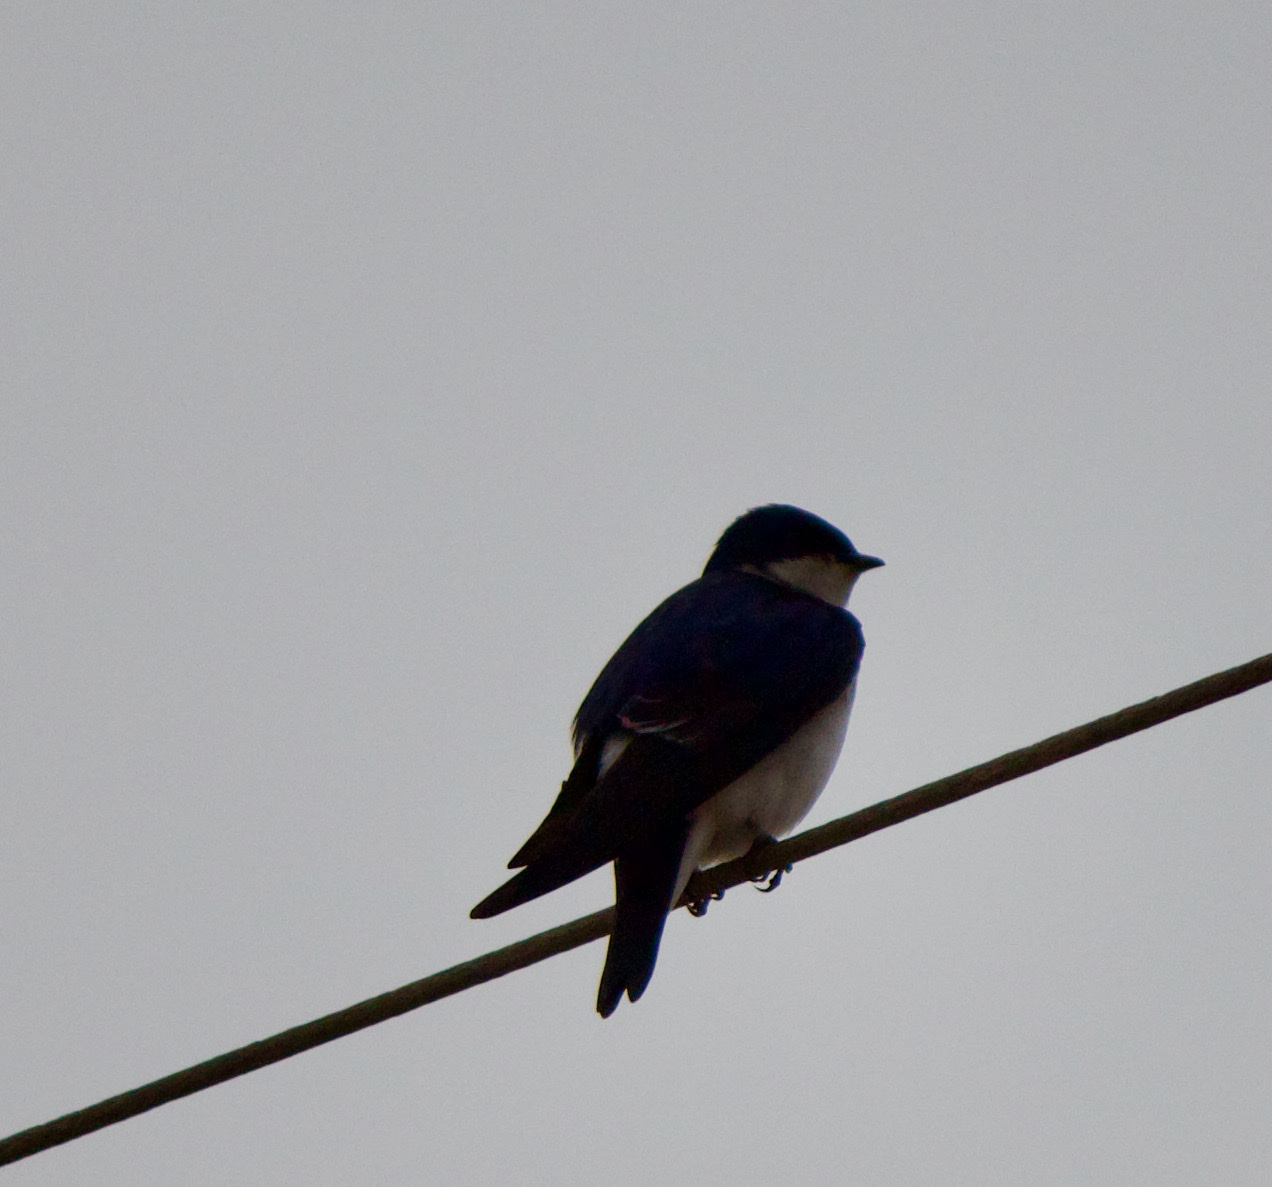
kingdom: Animalia
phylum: Chordata
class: Aves
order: Passeriformes
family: Hirundinidae
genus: Tachycineta
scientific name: Tachycineta leucopyga
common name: Chilean swallow
